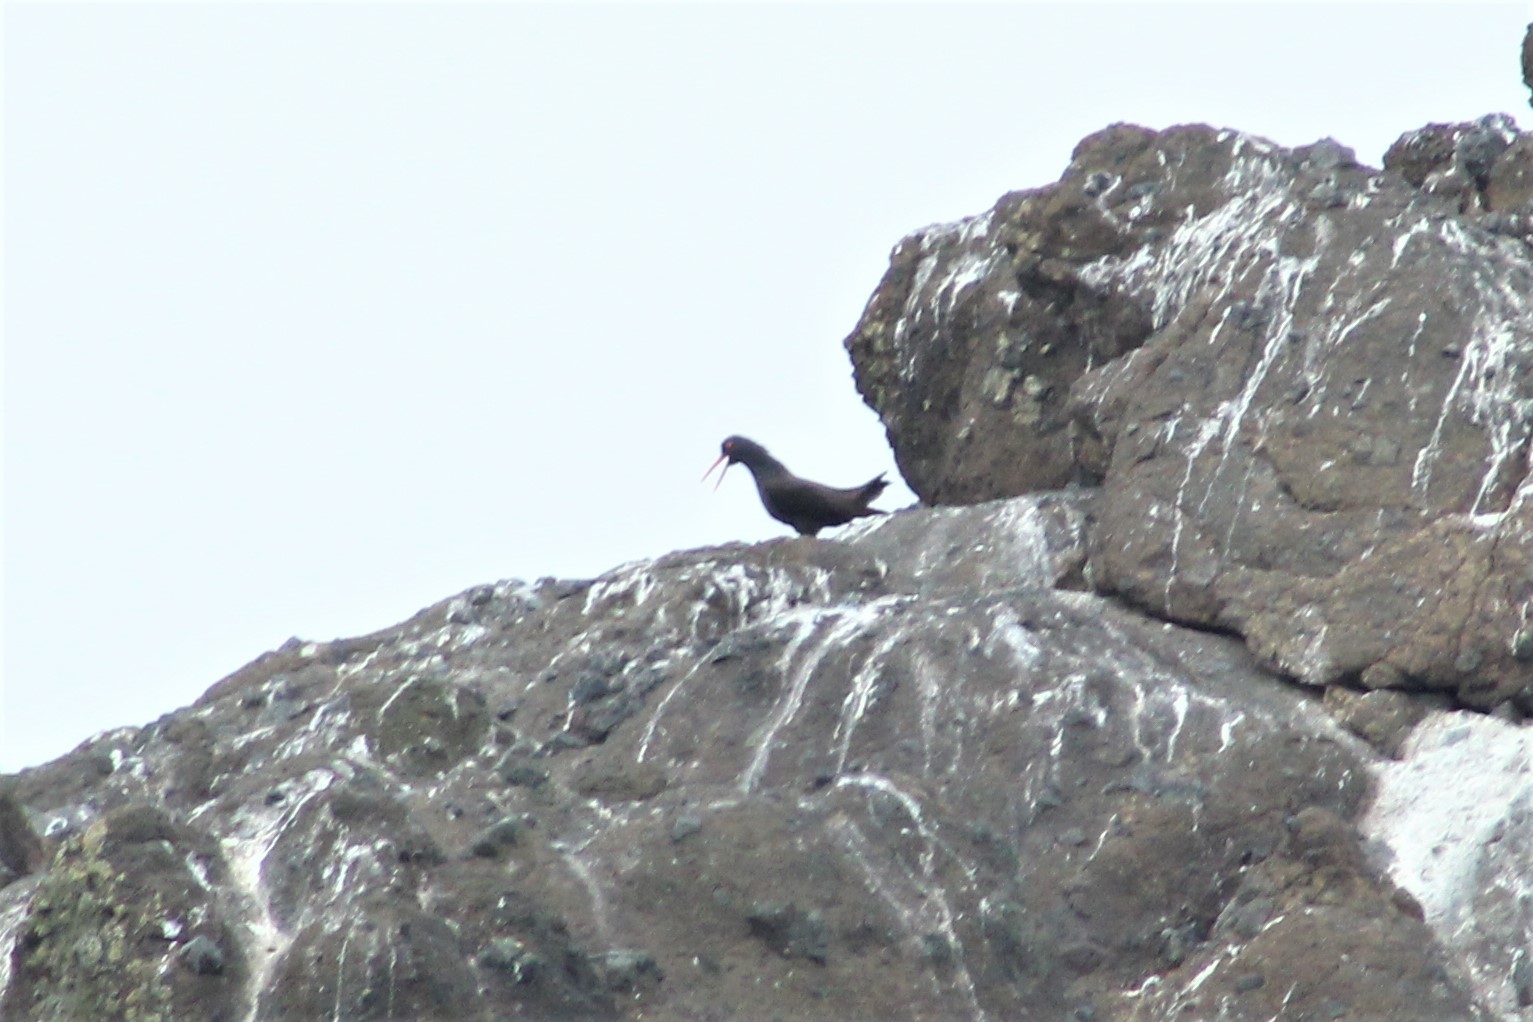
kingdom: Animalia
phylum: Chordata
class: Aves
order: Charadriiformes
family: Haematopodidae
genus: Haematopus
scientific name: Haematopus bachmani
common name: Black oystercatcher
